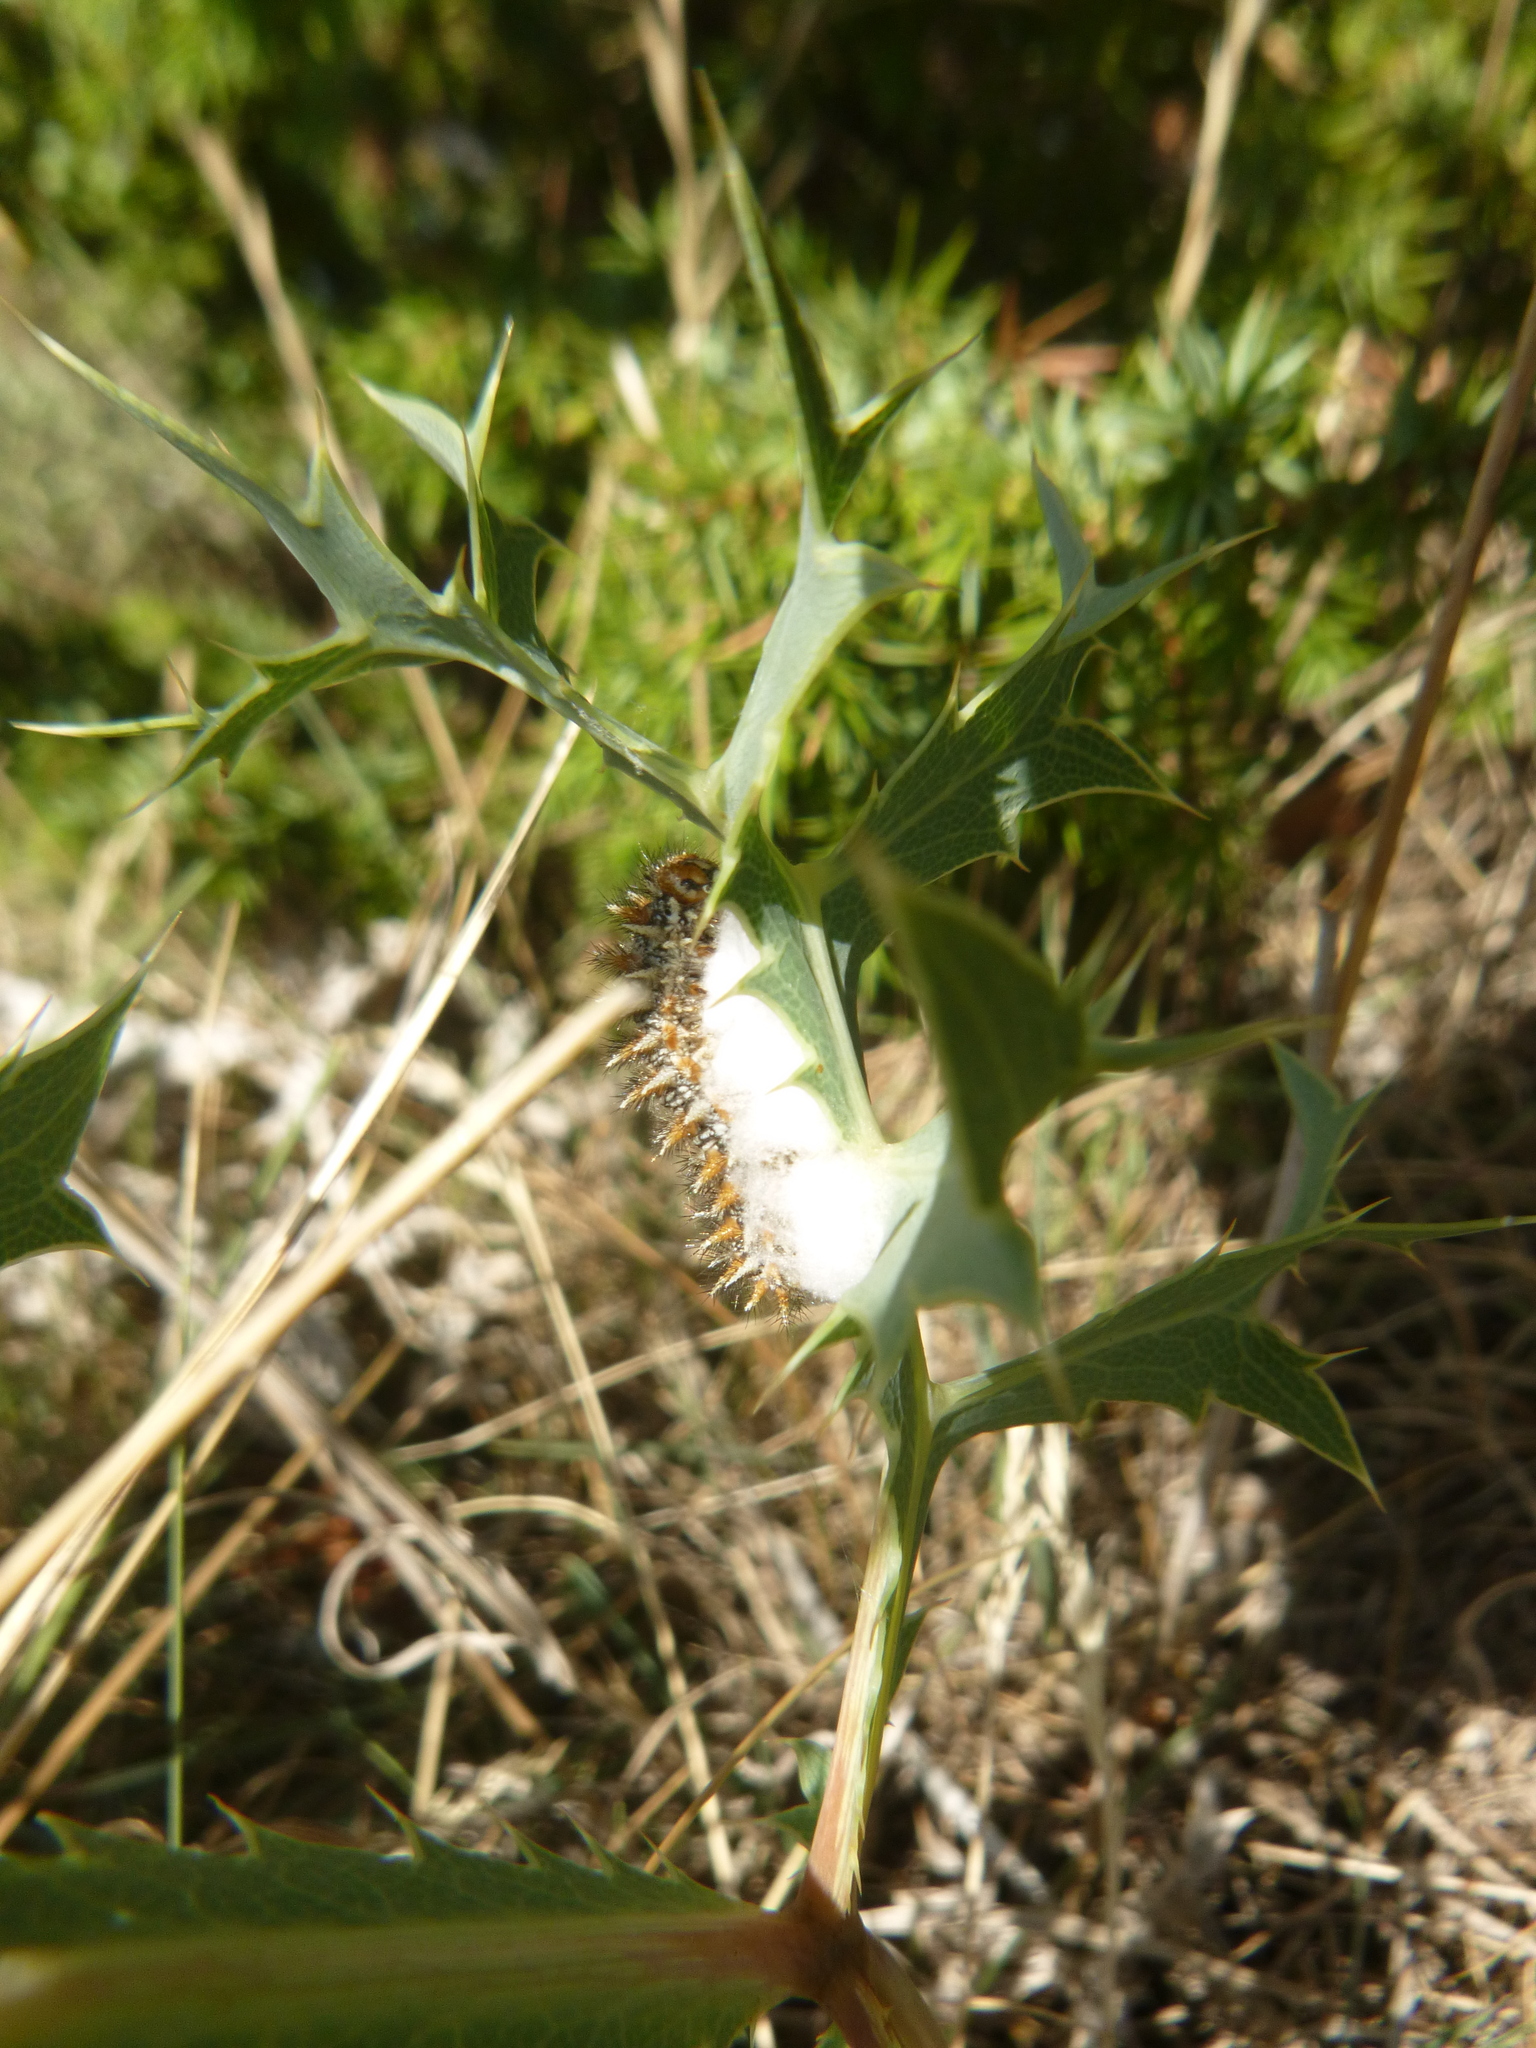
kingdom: Animalia
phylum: Arthropoda
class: Insecta
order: Lepidoptera
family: Nymphalidae
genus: Melitaea
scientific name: Melitaea didyma
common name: Spotted fritillary
